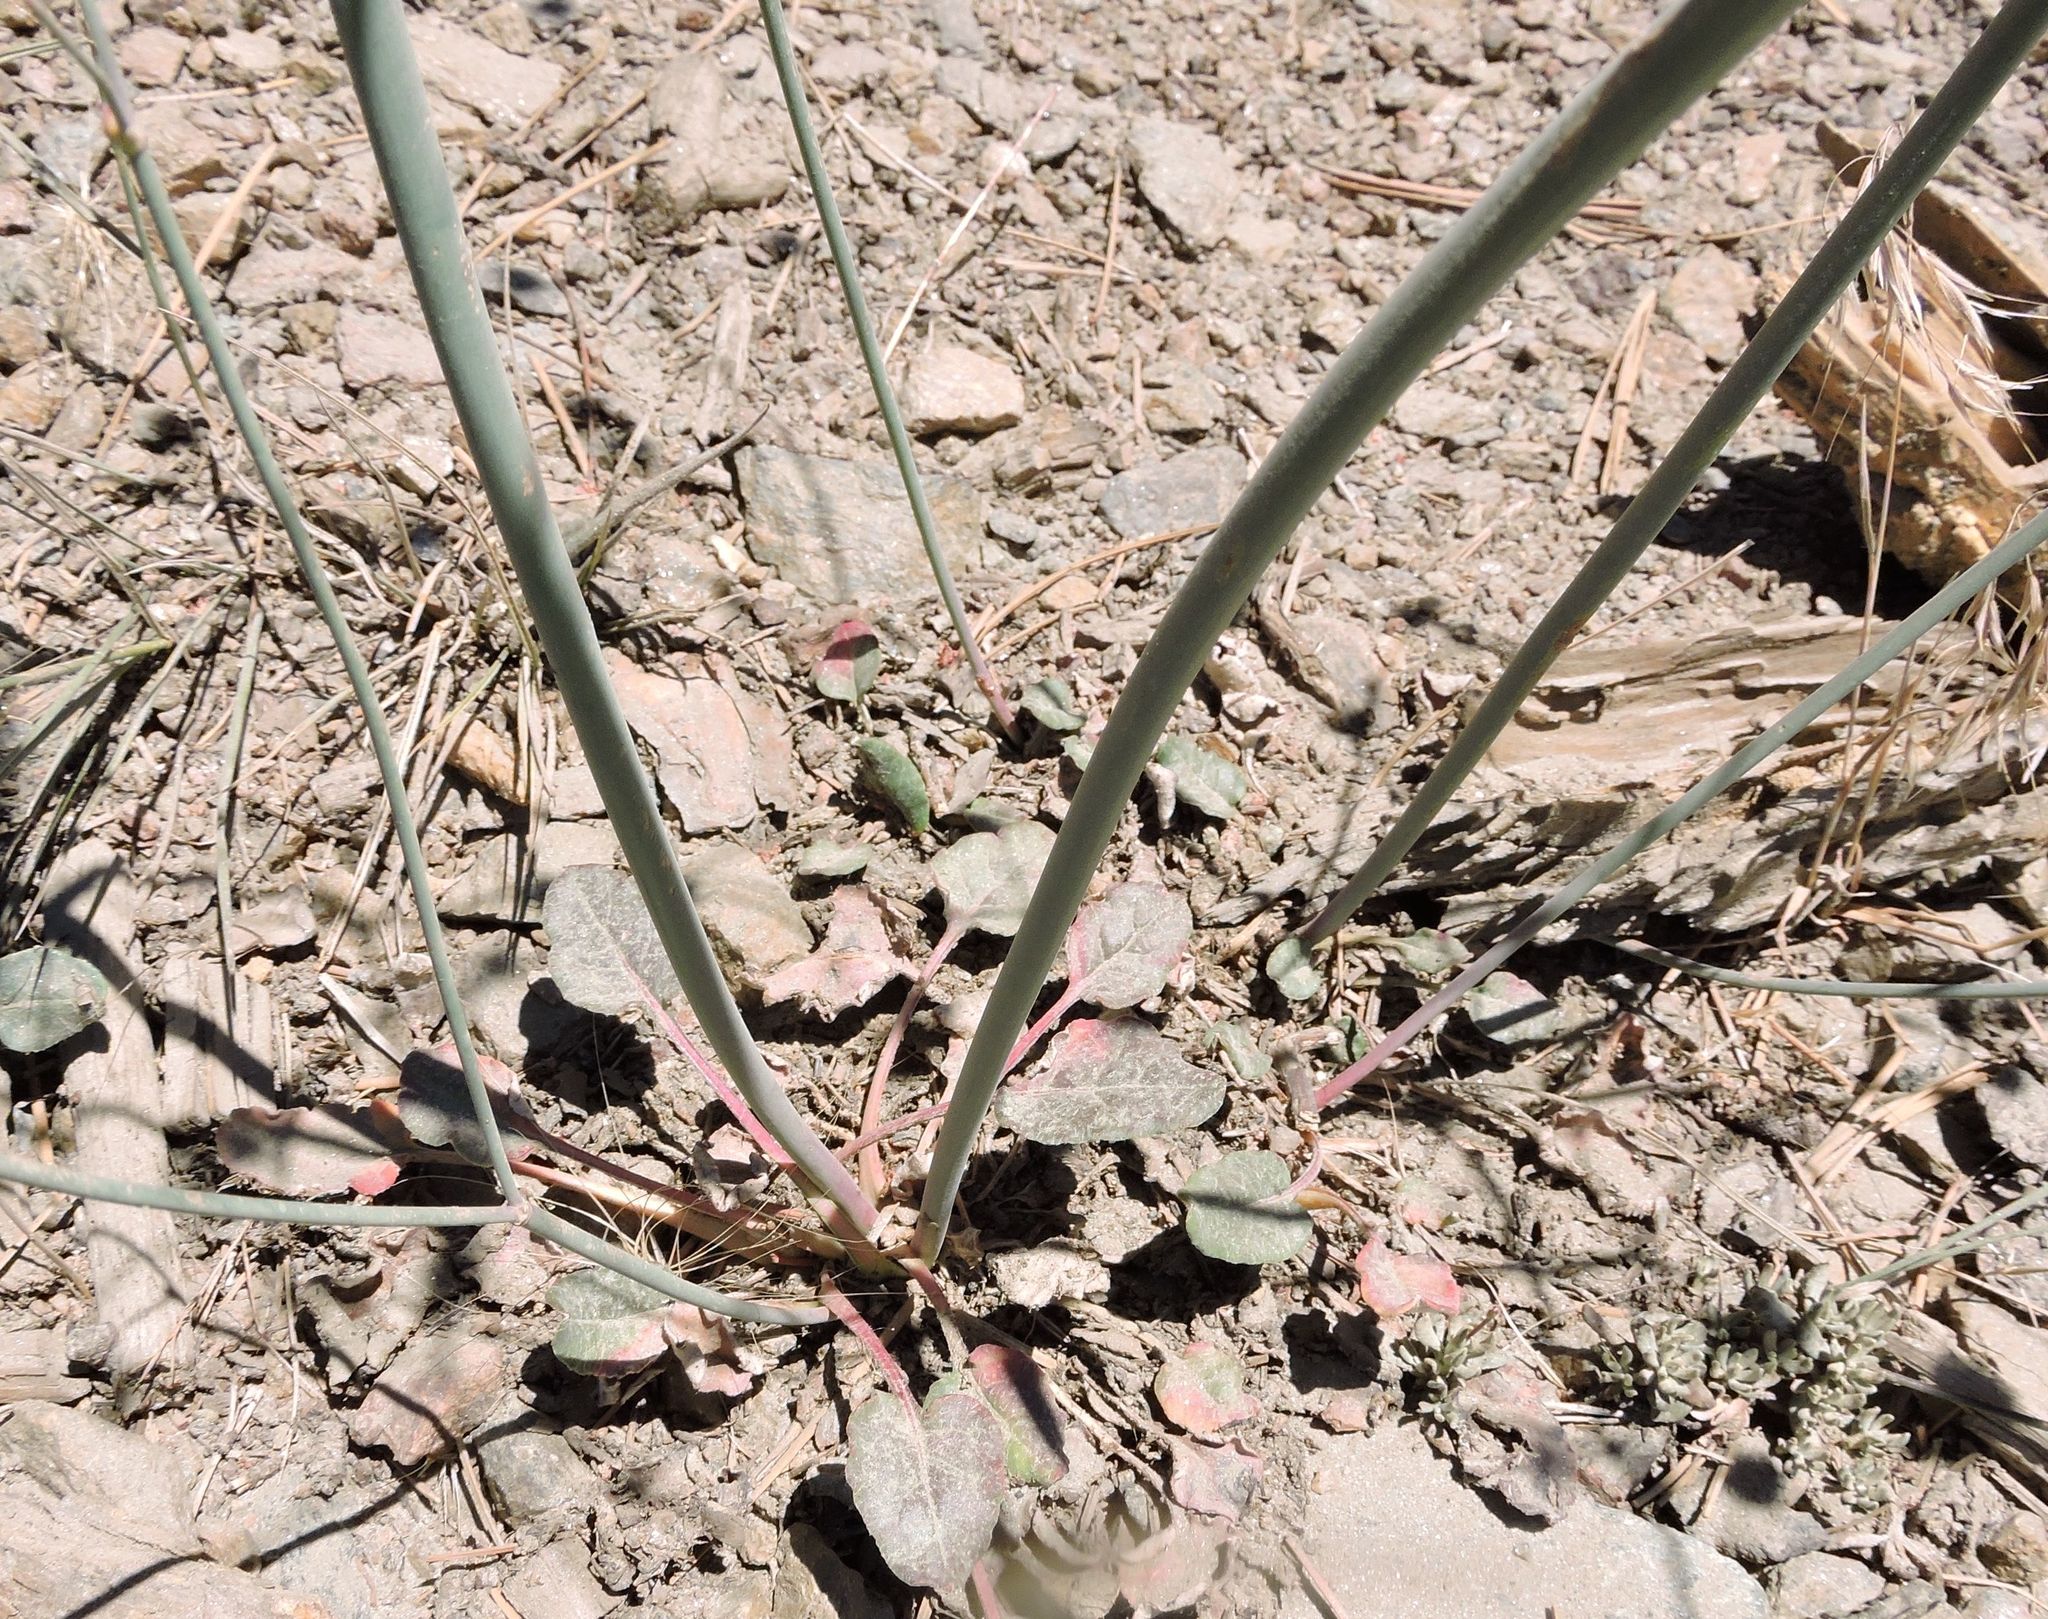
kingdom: Plantae
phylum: Tracheophyta
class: Magnoliopsida
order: Caryophyllales
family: Polygonaceae
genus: Eriogonum
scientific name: Eriogonum nudum
